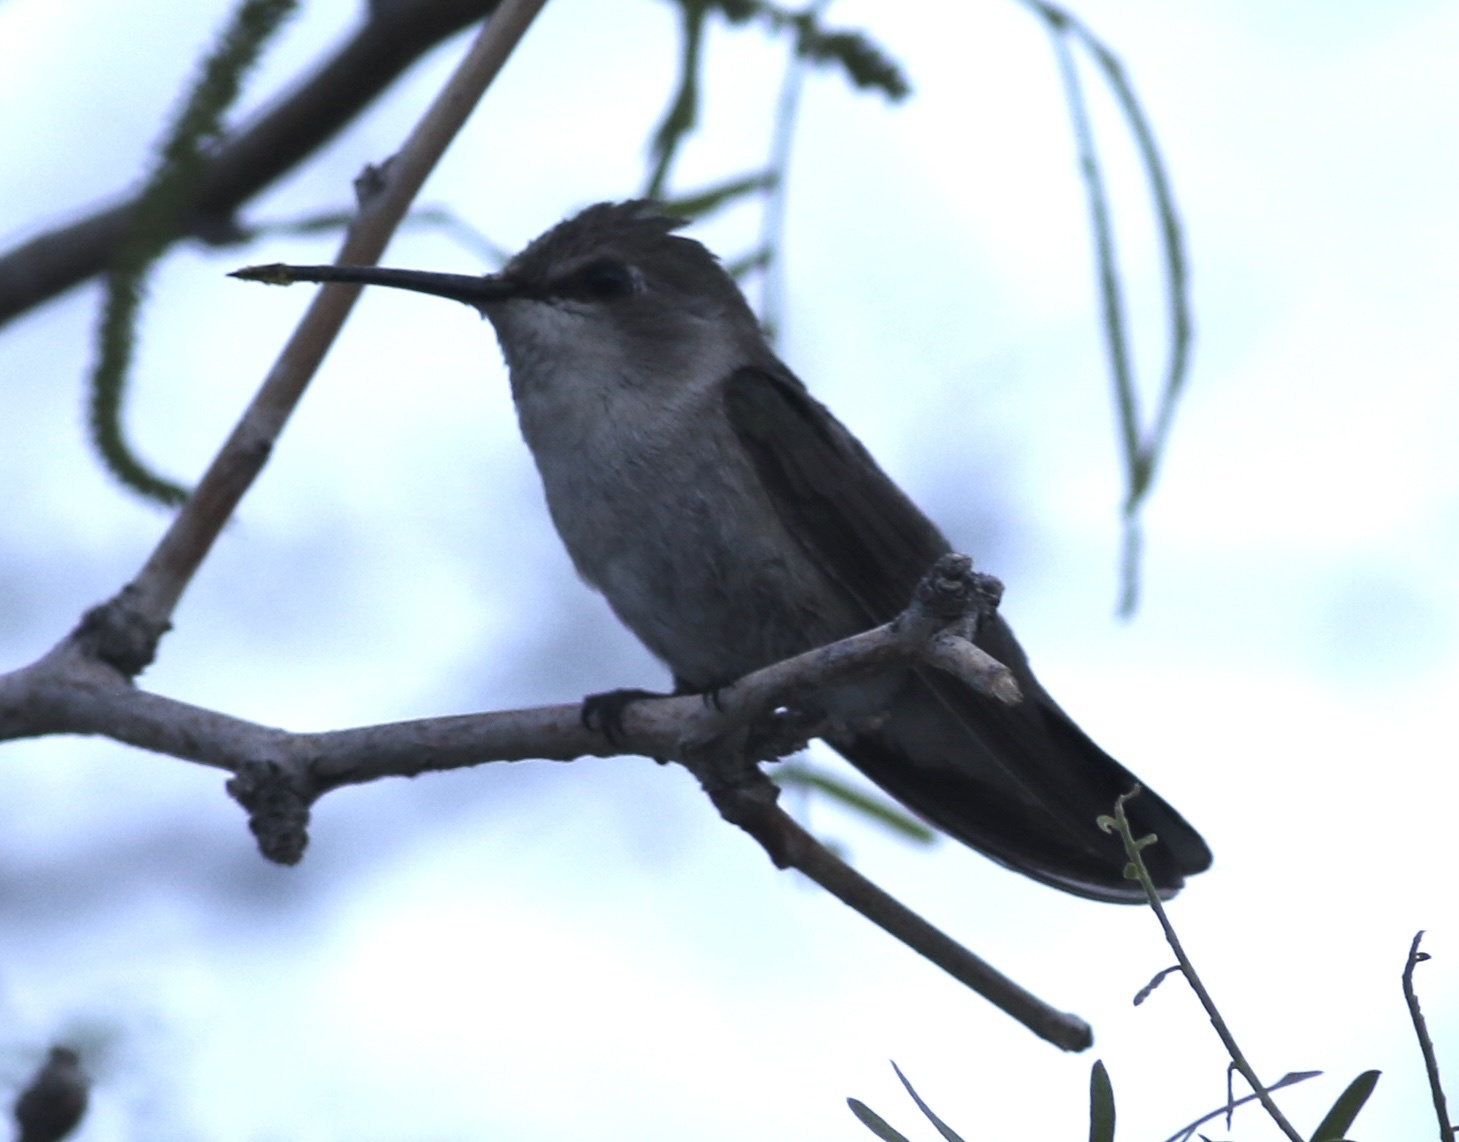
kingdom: Animalia
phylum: Chordata
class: Aves
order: Apodiformes
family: Trochilidae
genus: Calypte
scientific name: Calypte costae
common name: Costa's hummingbird
